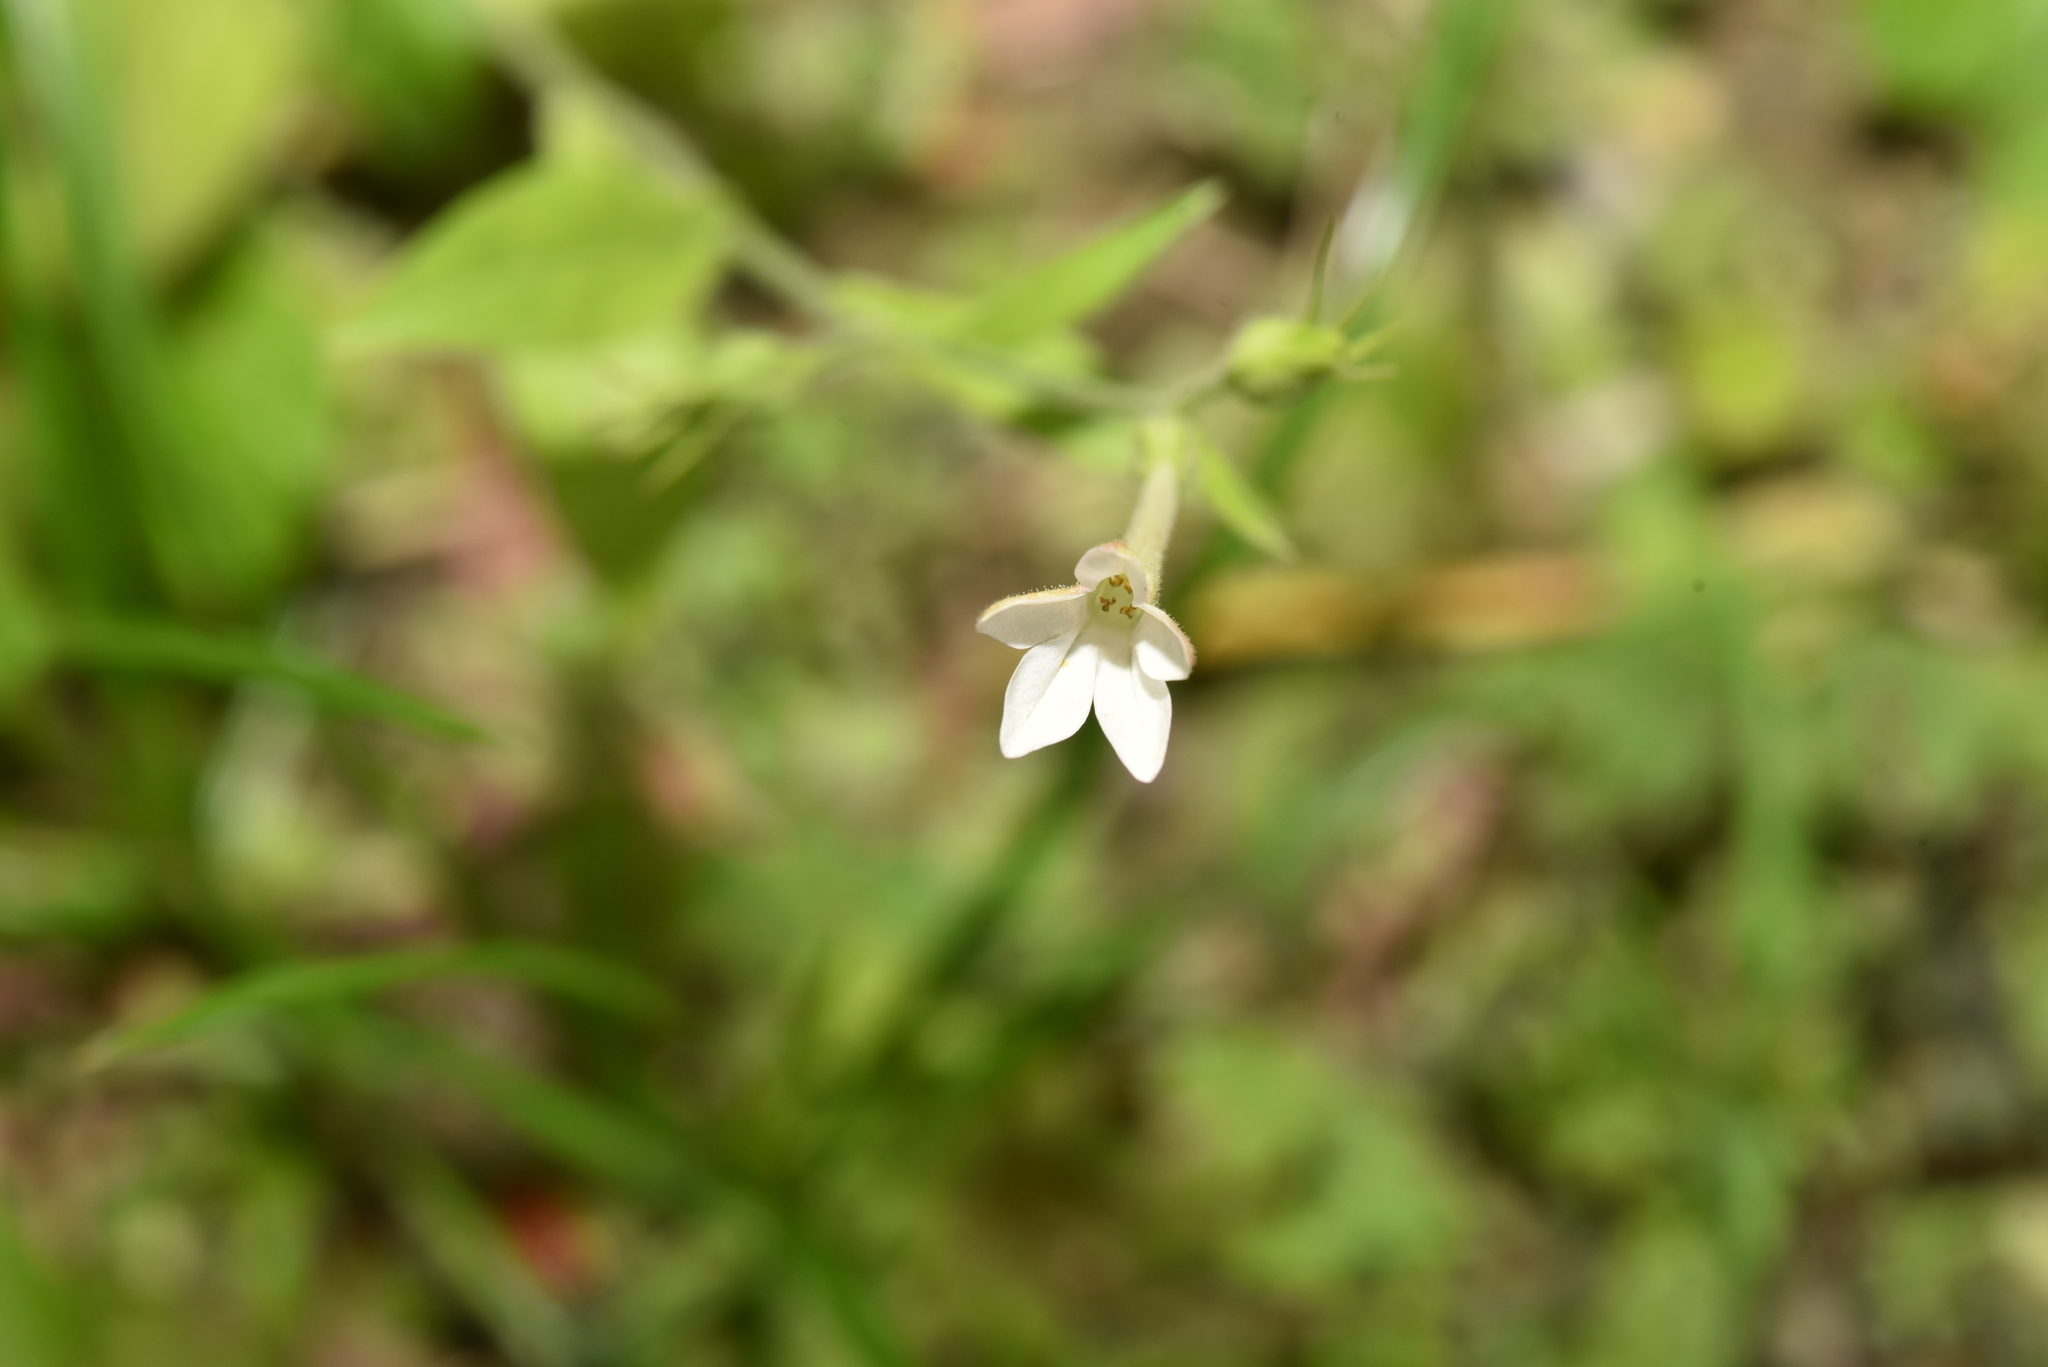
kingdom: Plantae
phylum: Tracheophyta
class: Magnoliopsida
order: Solanales
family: Solanaceae
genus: Nicotiana
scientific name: Nicotiana plumbaginifolia
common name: Tex-mex tobacco
